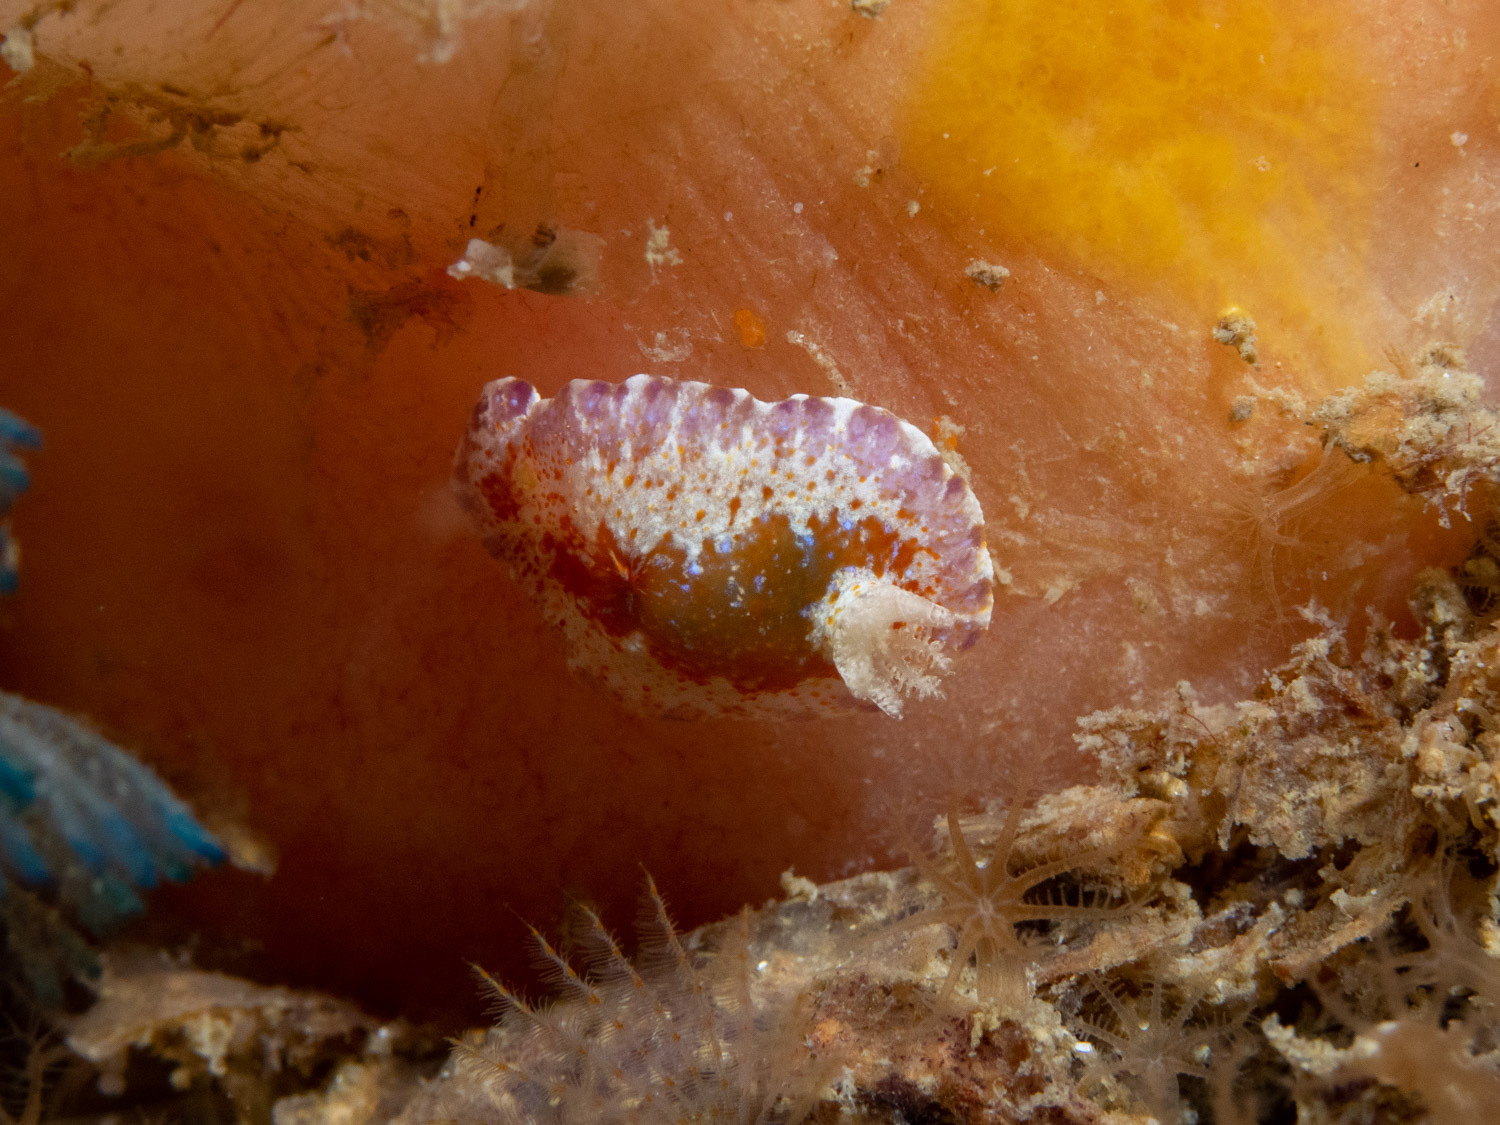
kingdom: Animalia
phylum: Mollusca
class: Gastropoda
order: Nudibranchia
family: Chromodorididae
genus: Chromodoris
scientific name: Chromodoris alternata
